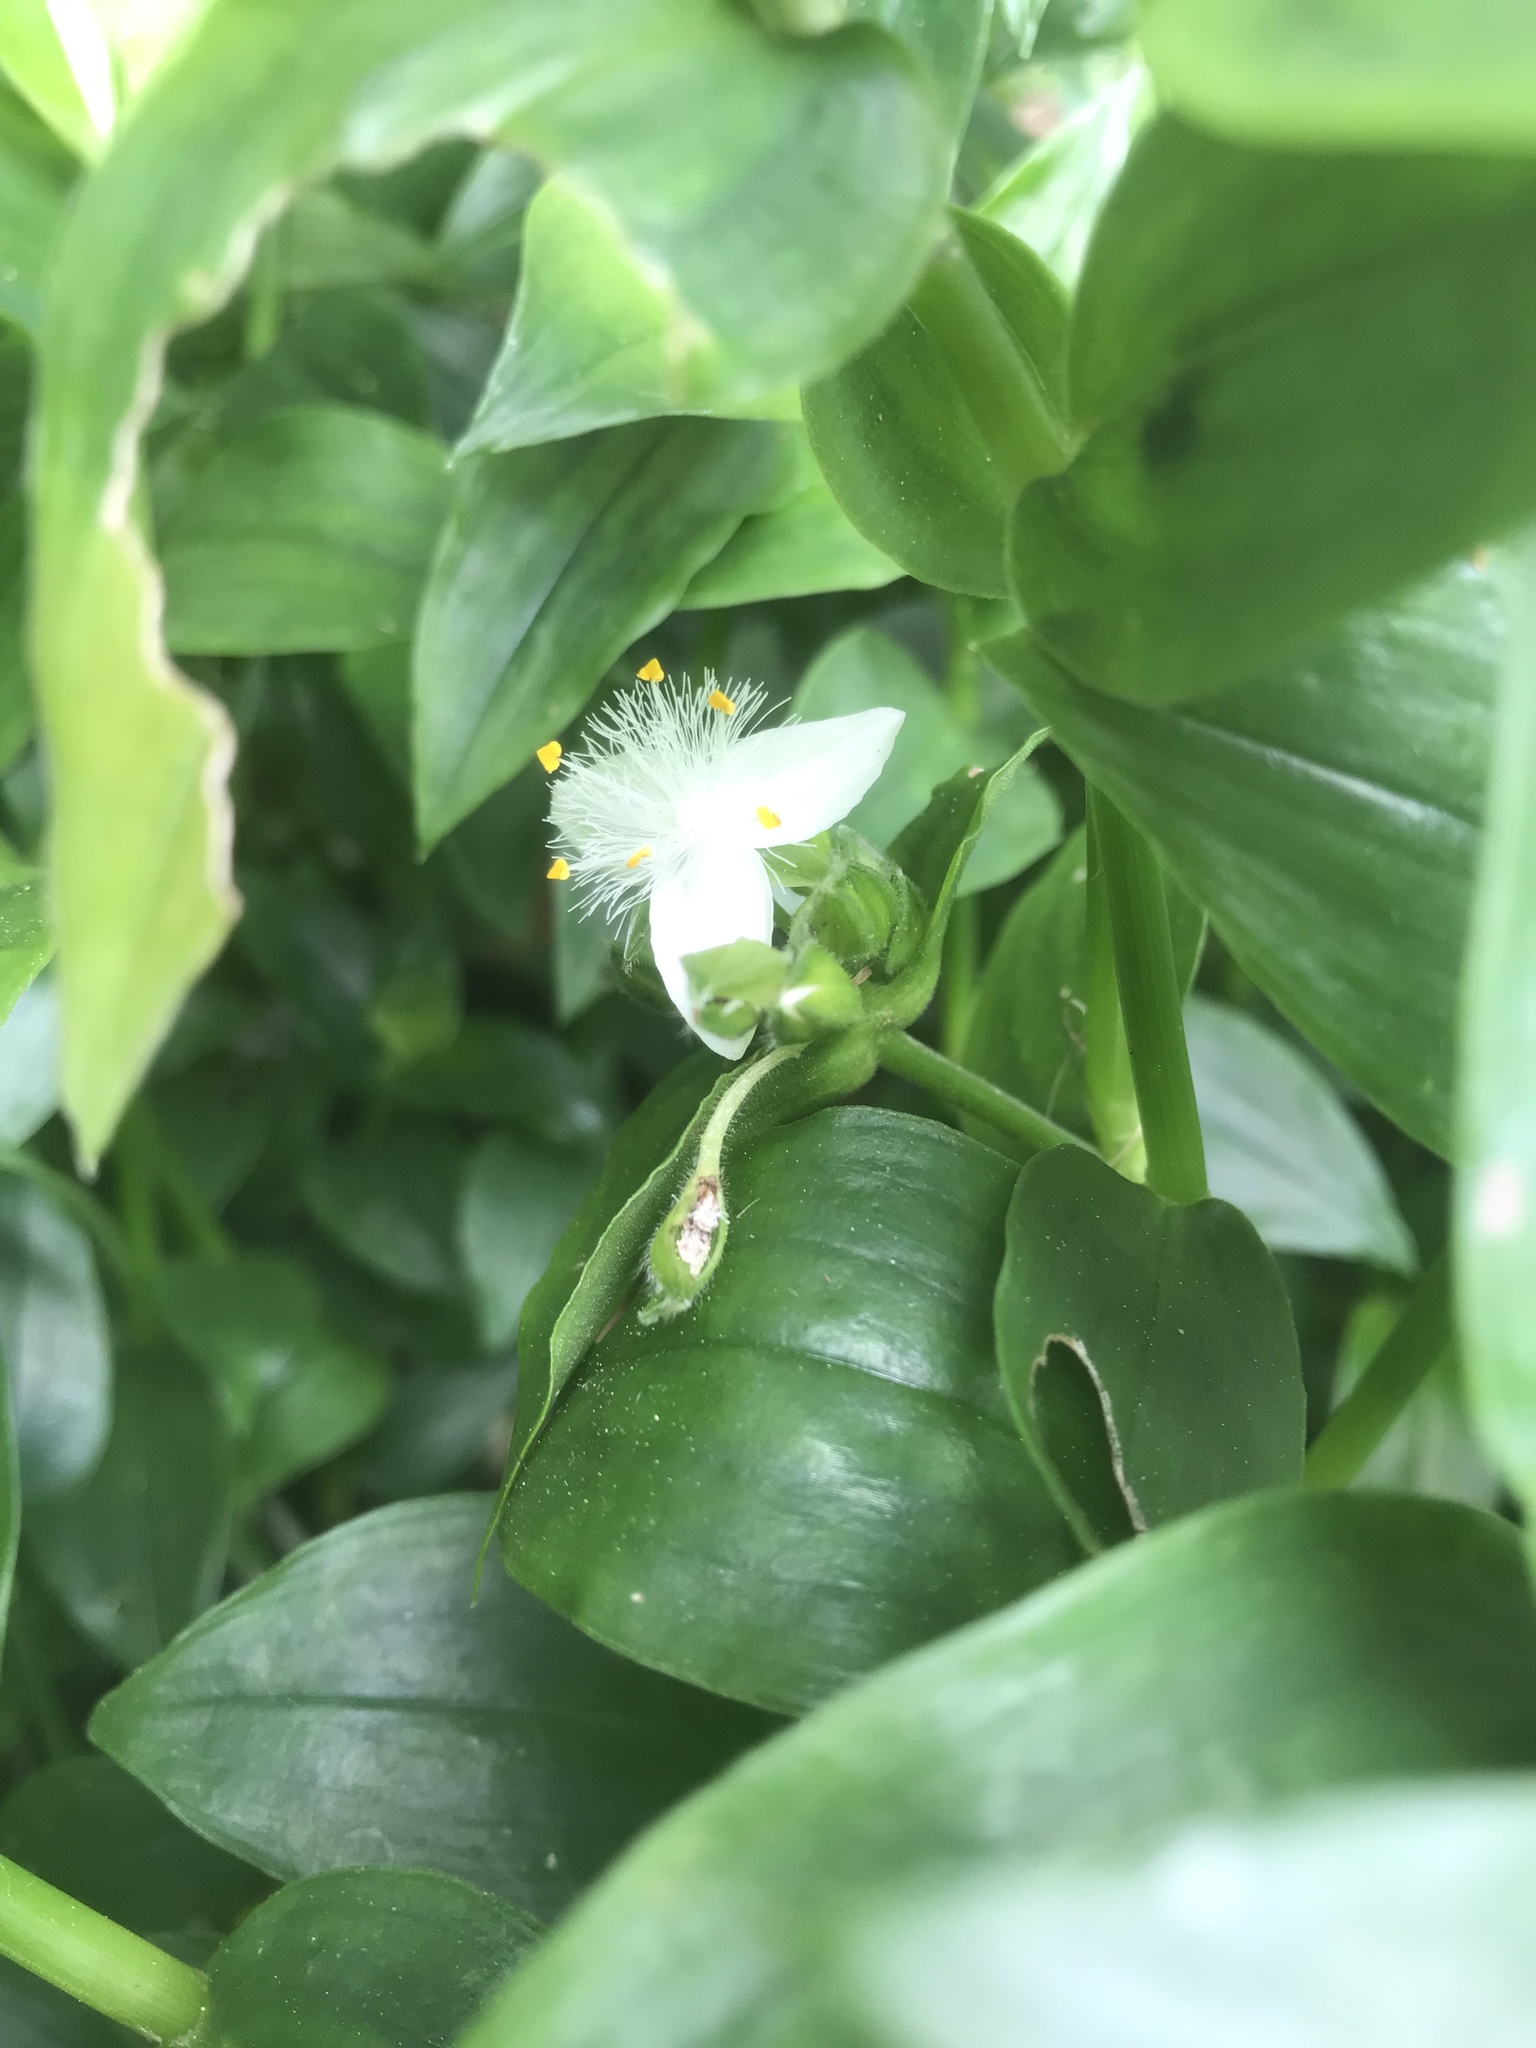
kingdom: Plantae
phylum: Tracheophyta
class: Liliopsida
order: Commelinales
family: Commelinaceae
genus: Tradescantia
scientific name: Tradescantia fluminensis
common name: Wandering-jew
